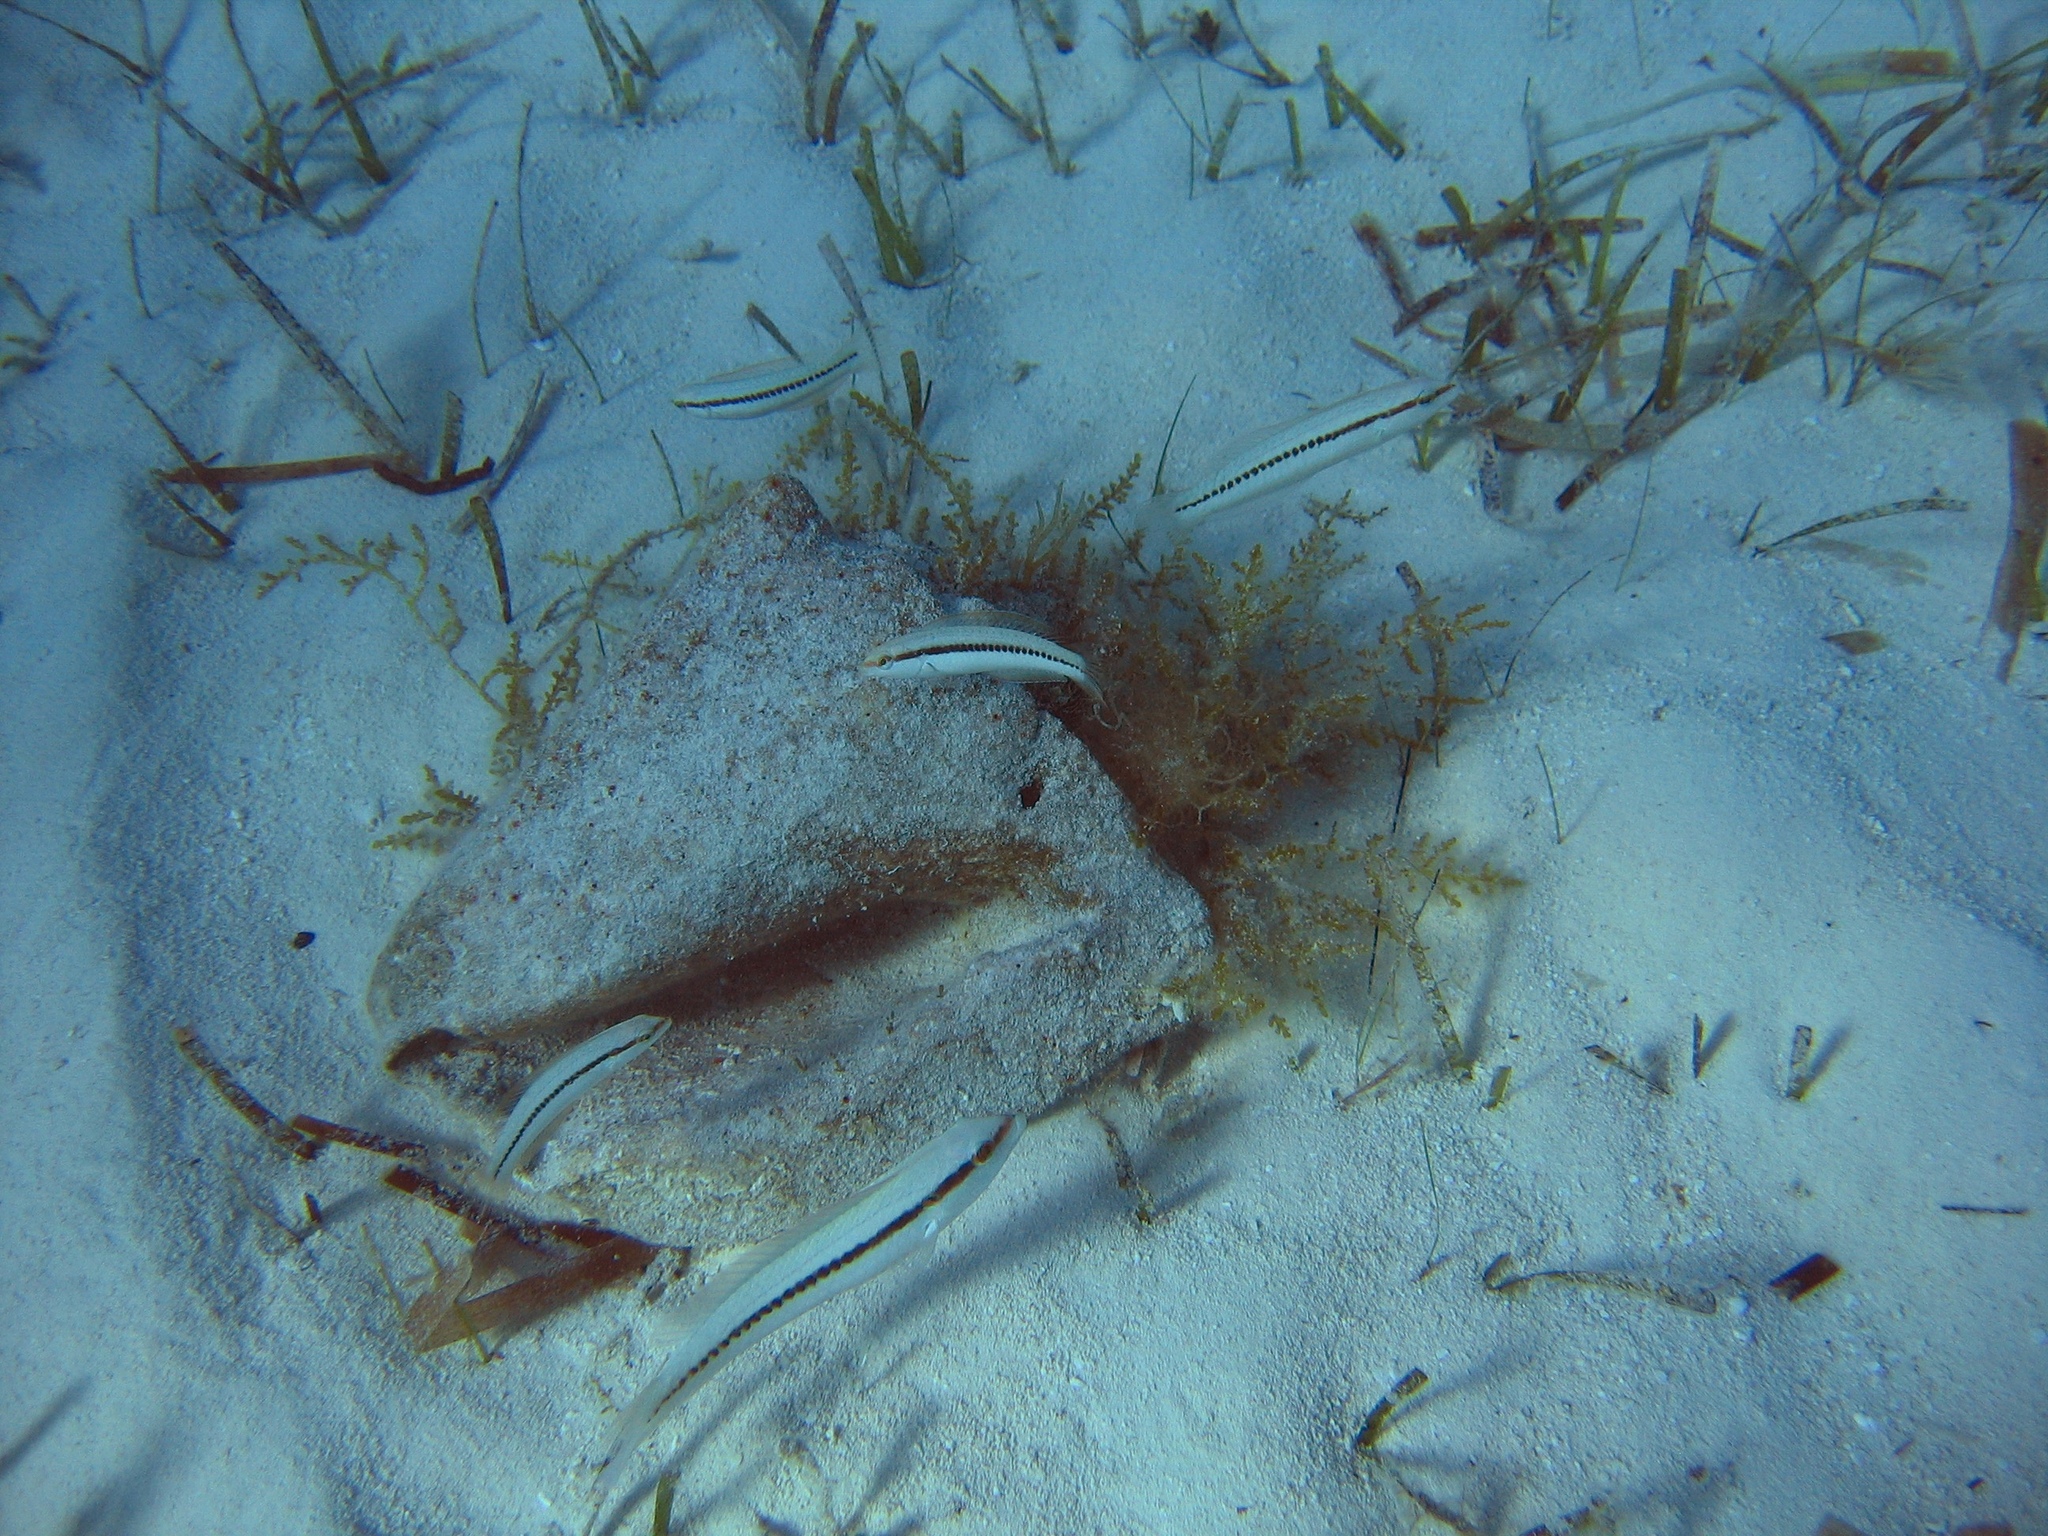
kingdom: Animalia
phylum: Chordata
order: Perciformes
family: Labridae
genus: Halichoeres
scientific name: Halichoeres bivittatus
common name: Slippery dick
